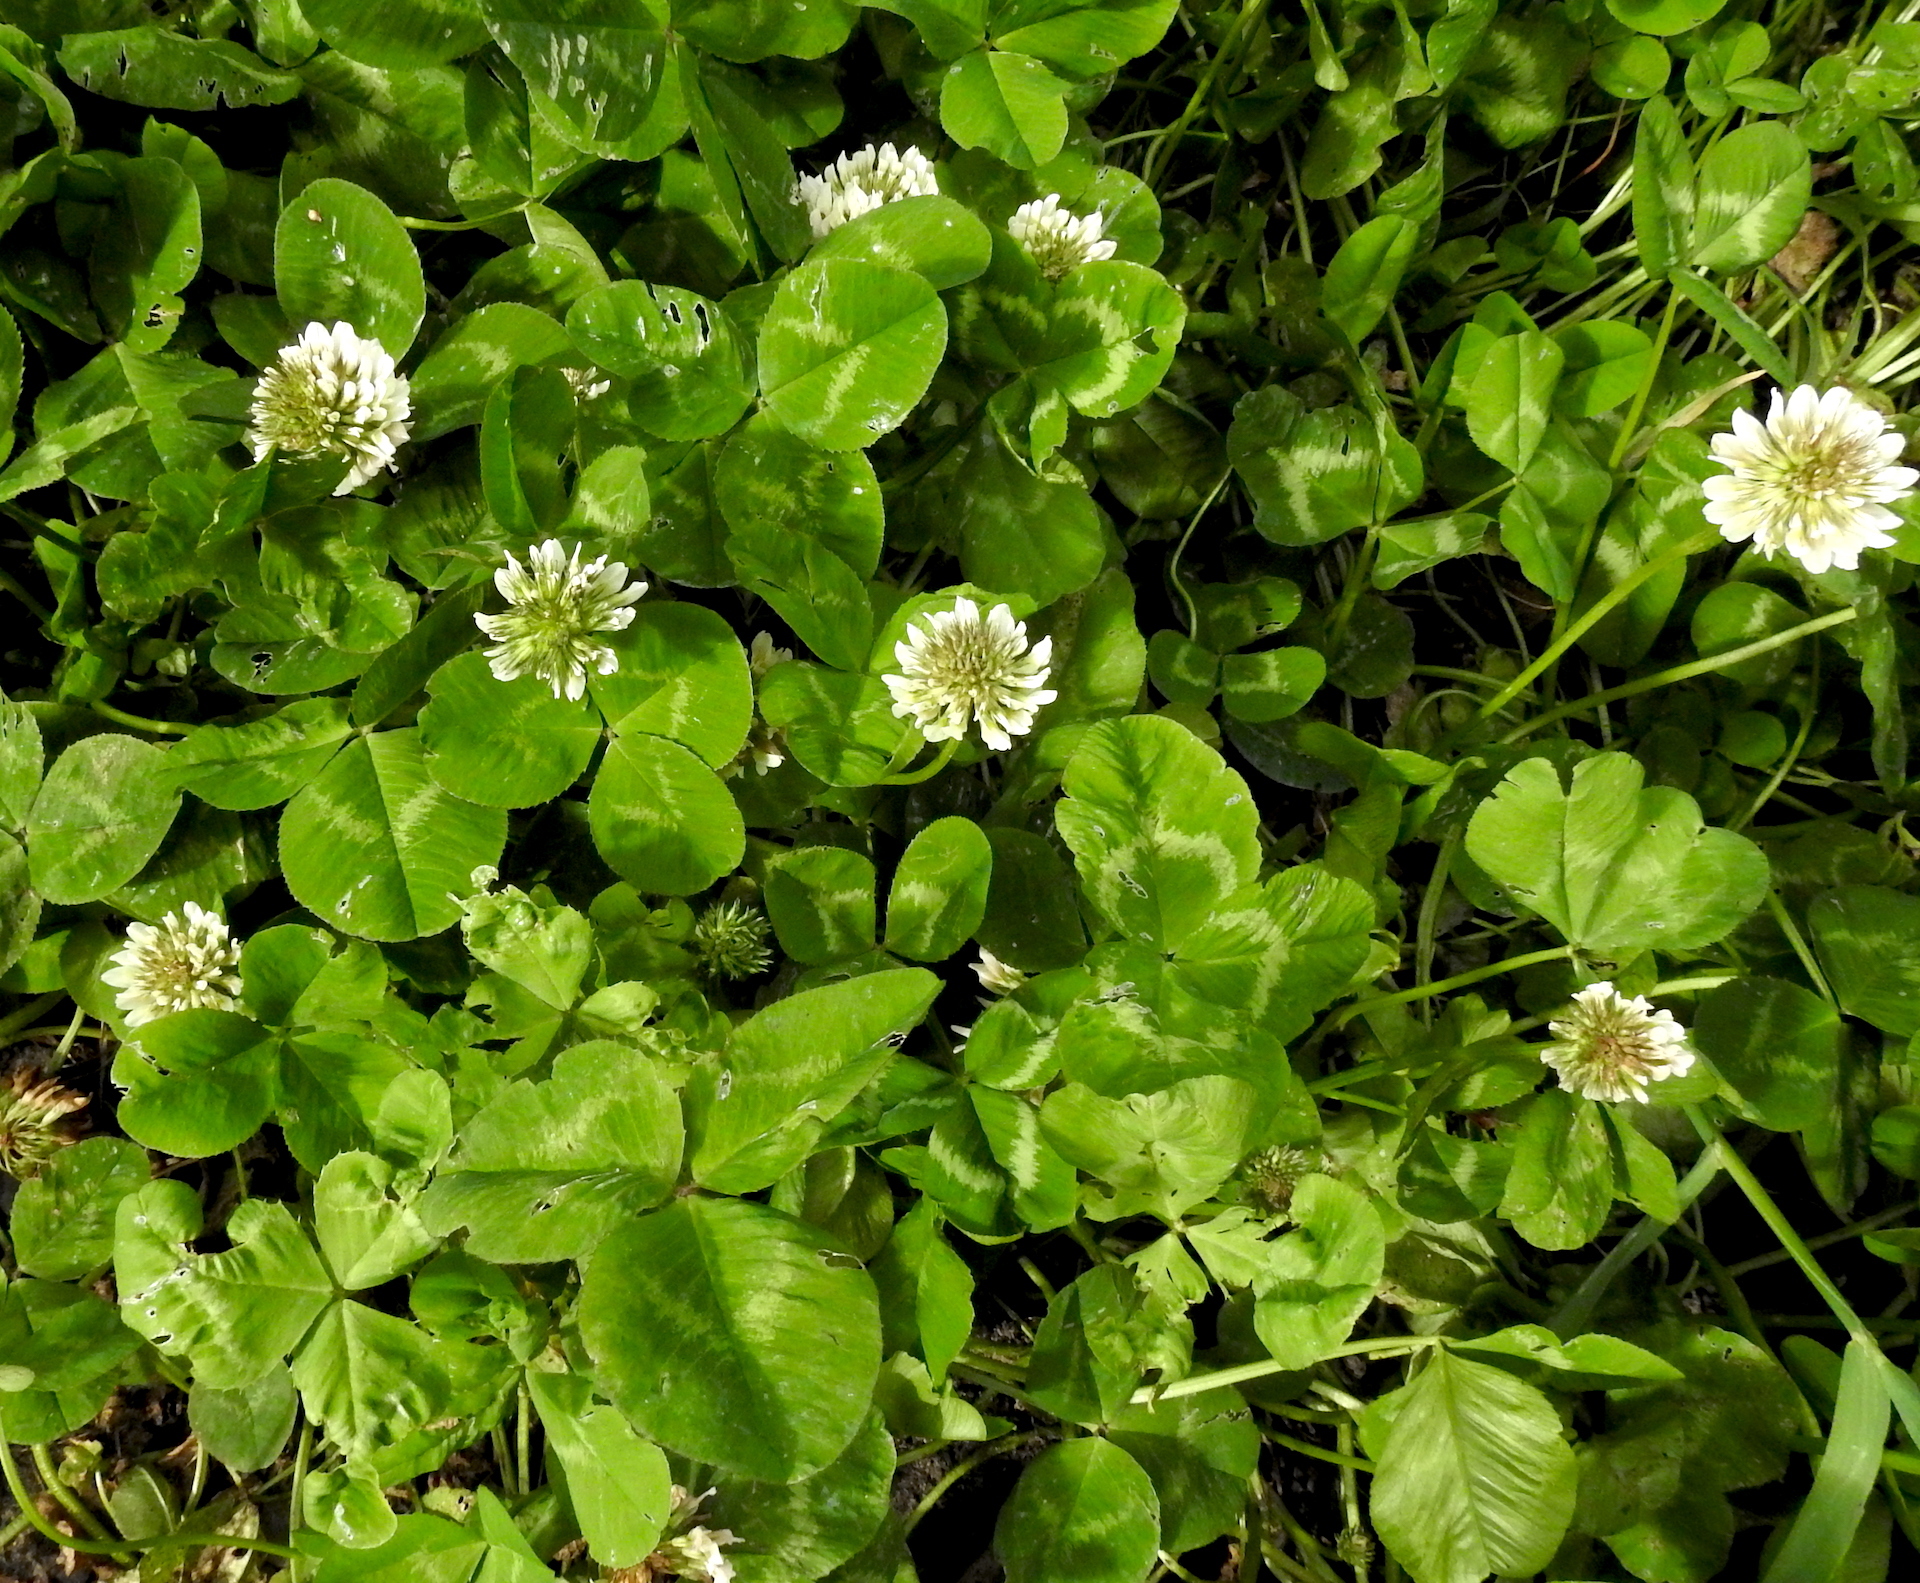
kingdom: Plantae
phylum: Tracheophyta
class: Magnoliopsida
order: Fabales
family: Fabaceae
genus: Trifolium
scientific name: Trifolium repens
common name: White clover
